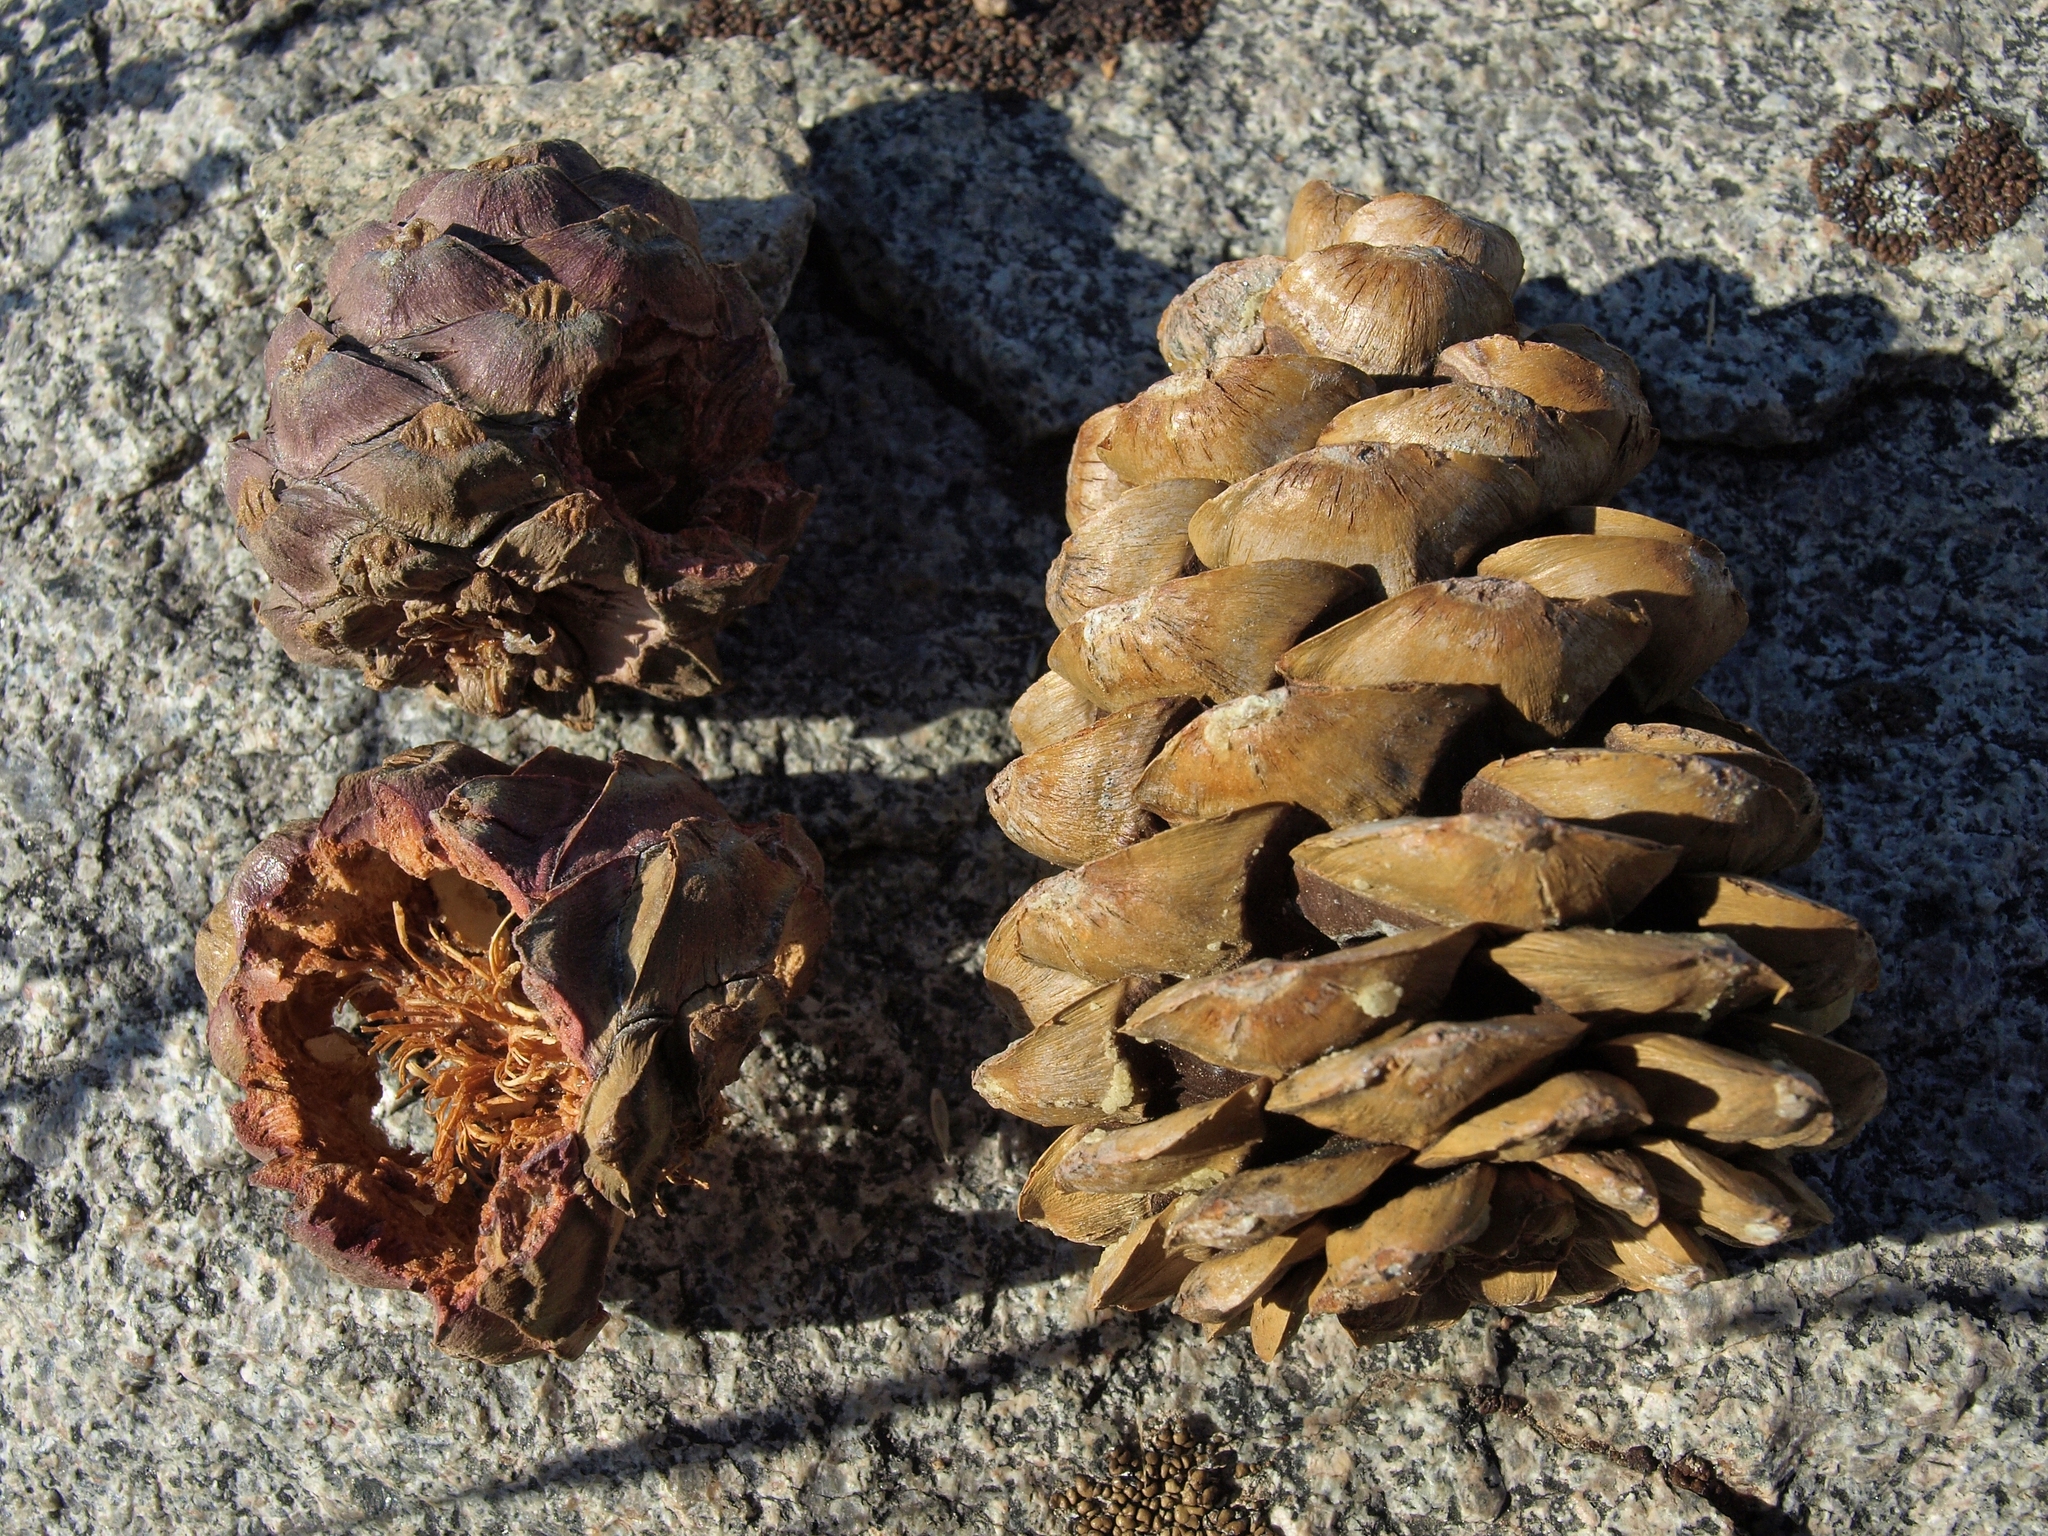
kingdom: Plantae
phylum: Tracheophyta
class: Pinopsida
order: Pinales
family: Pinaceae
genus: Pinus
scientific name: Pinus albicaulis
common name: Whitebark pine
